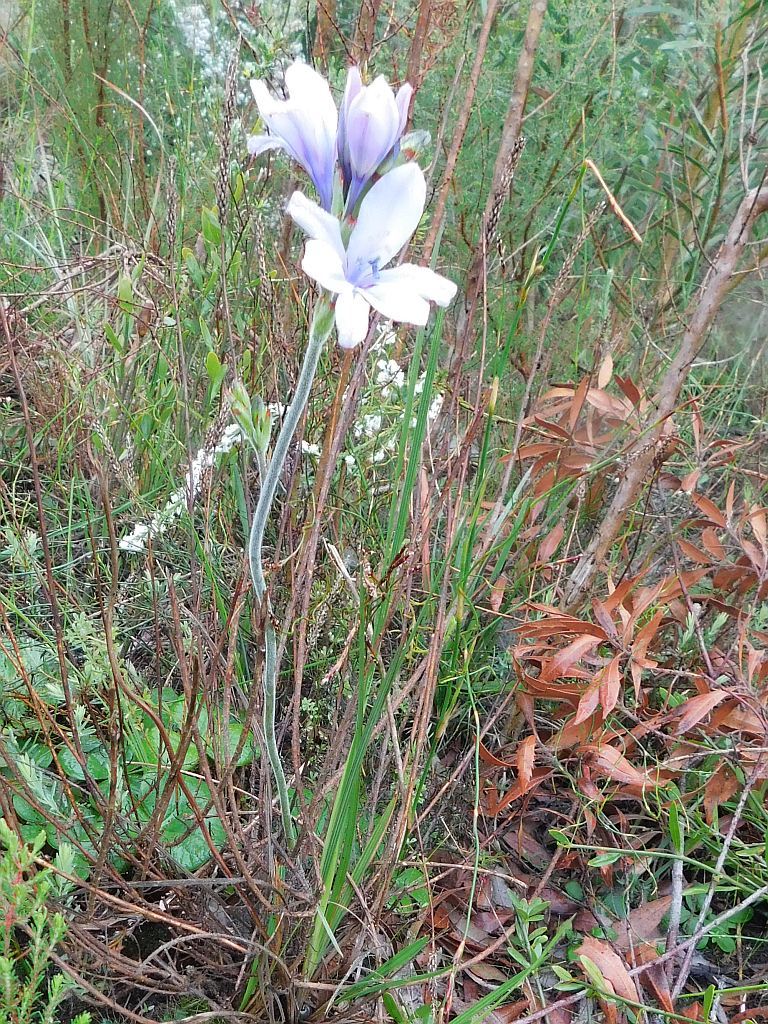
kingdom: Plantae
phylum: Tracheophyta
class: Liliopsida
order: Asparagales
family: Iridaceae
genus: Babiana
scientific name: Babiana nervosa
